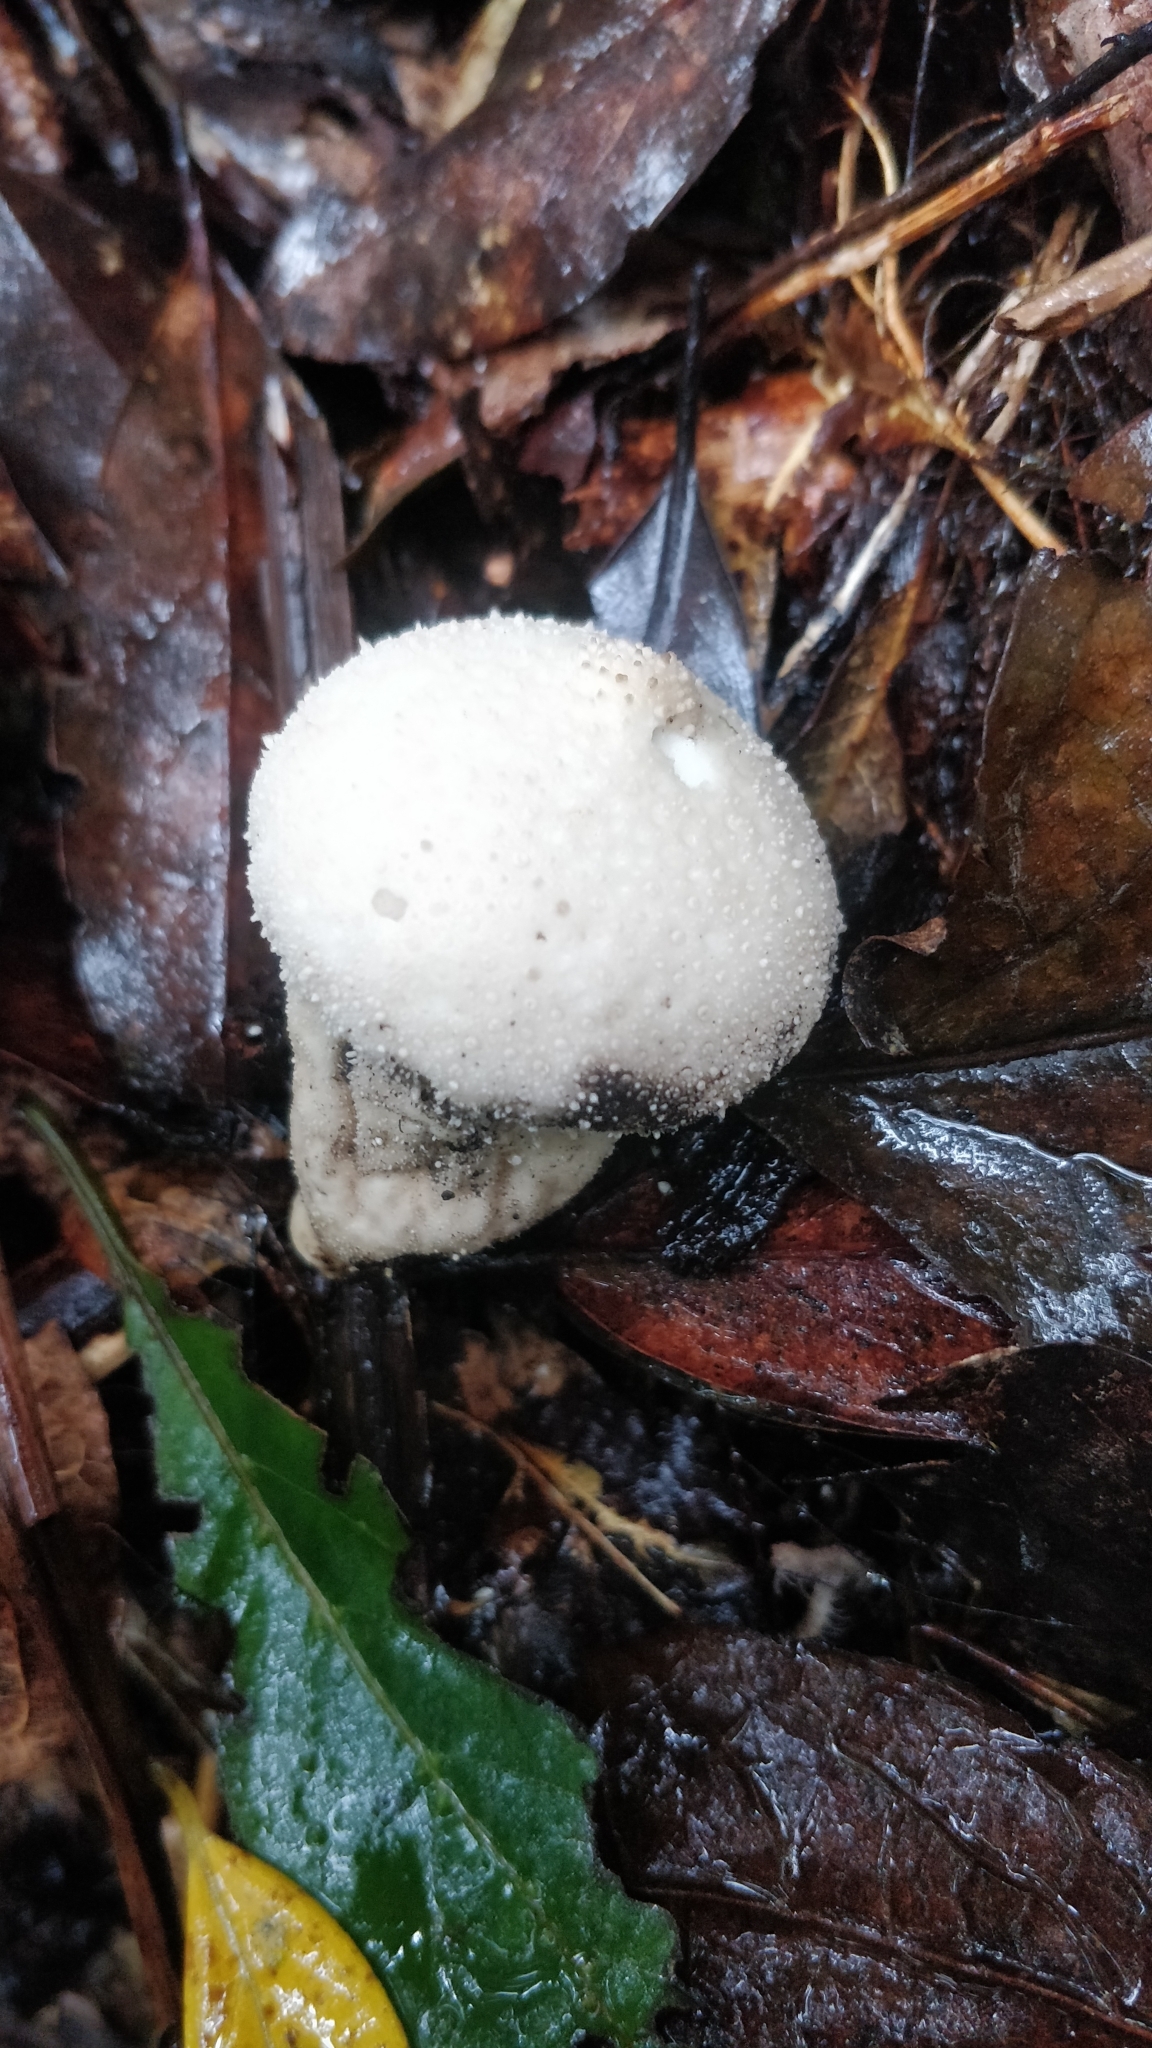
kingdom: Fungi
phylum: Basidiomycota
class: Agaricomycetes
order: Agaricales
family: Lycoperdaceae
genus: Lycoperdon
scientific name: Lycoperdon perlatum
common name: Common puffball
